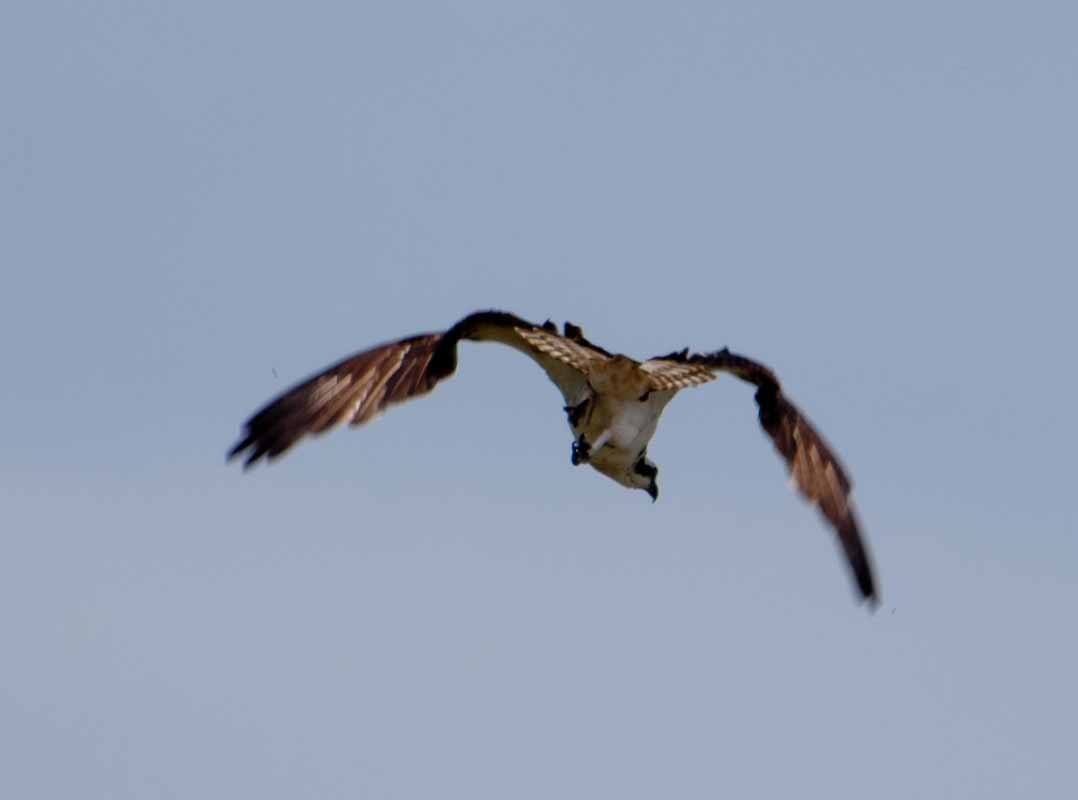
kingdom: Animalia
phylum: Chordata
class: Aves
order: Accipitriformes
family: Pandionidae
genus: Pandion
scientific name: Pandion haliaetus
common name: Osprey
